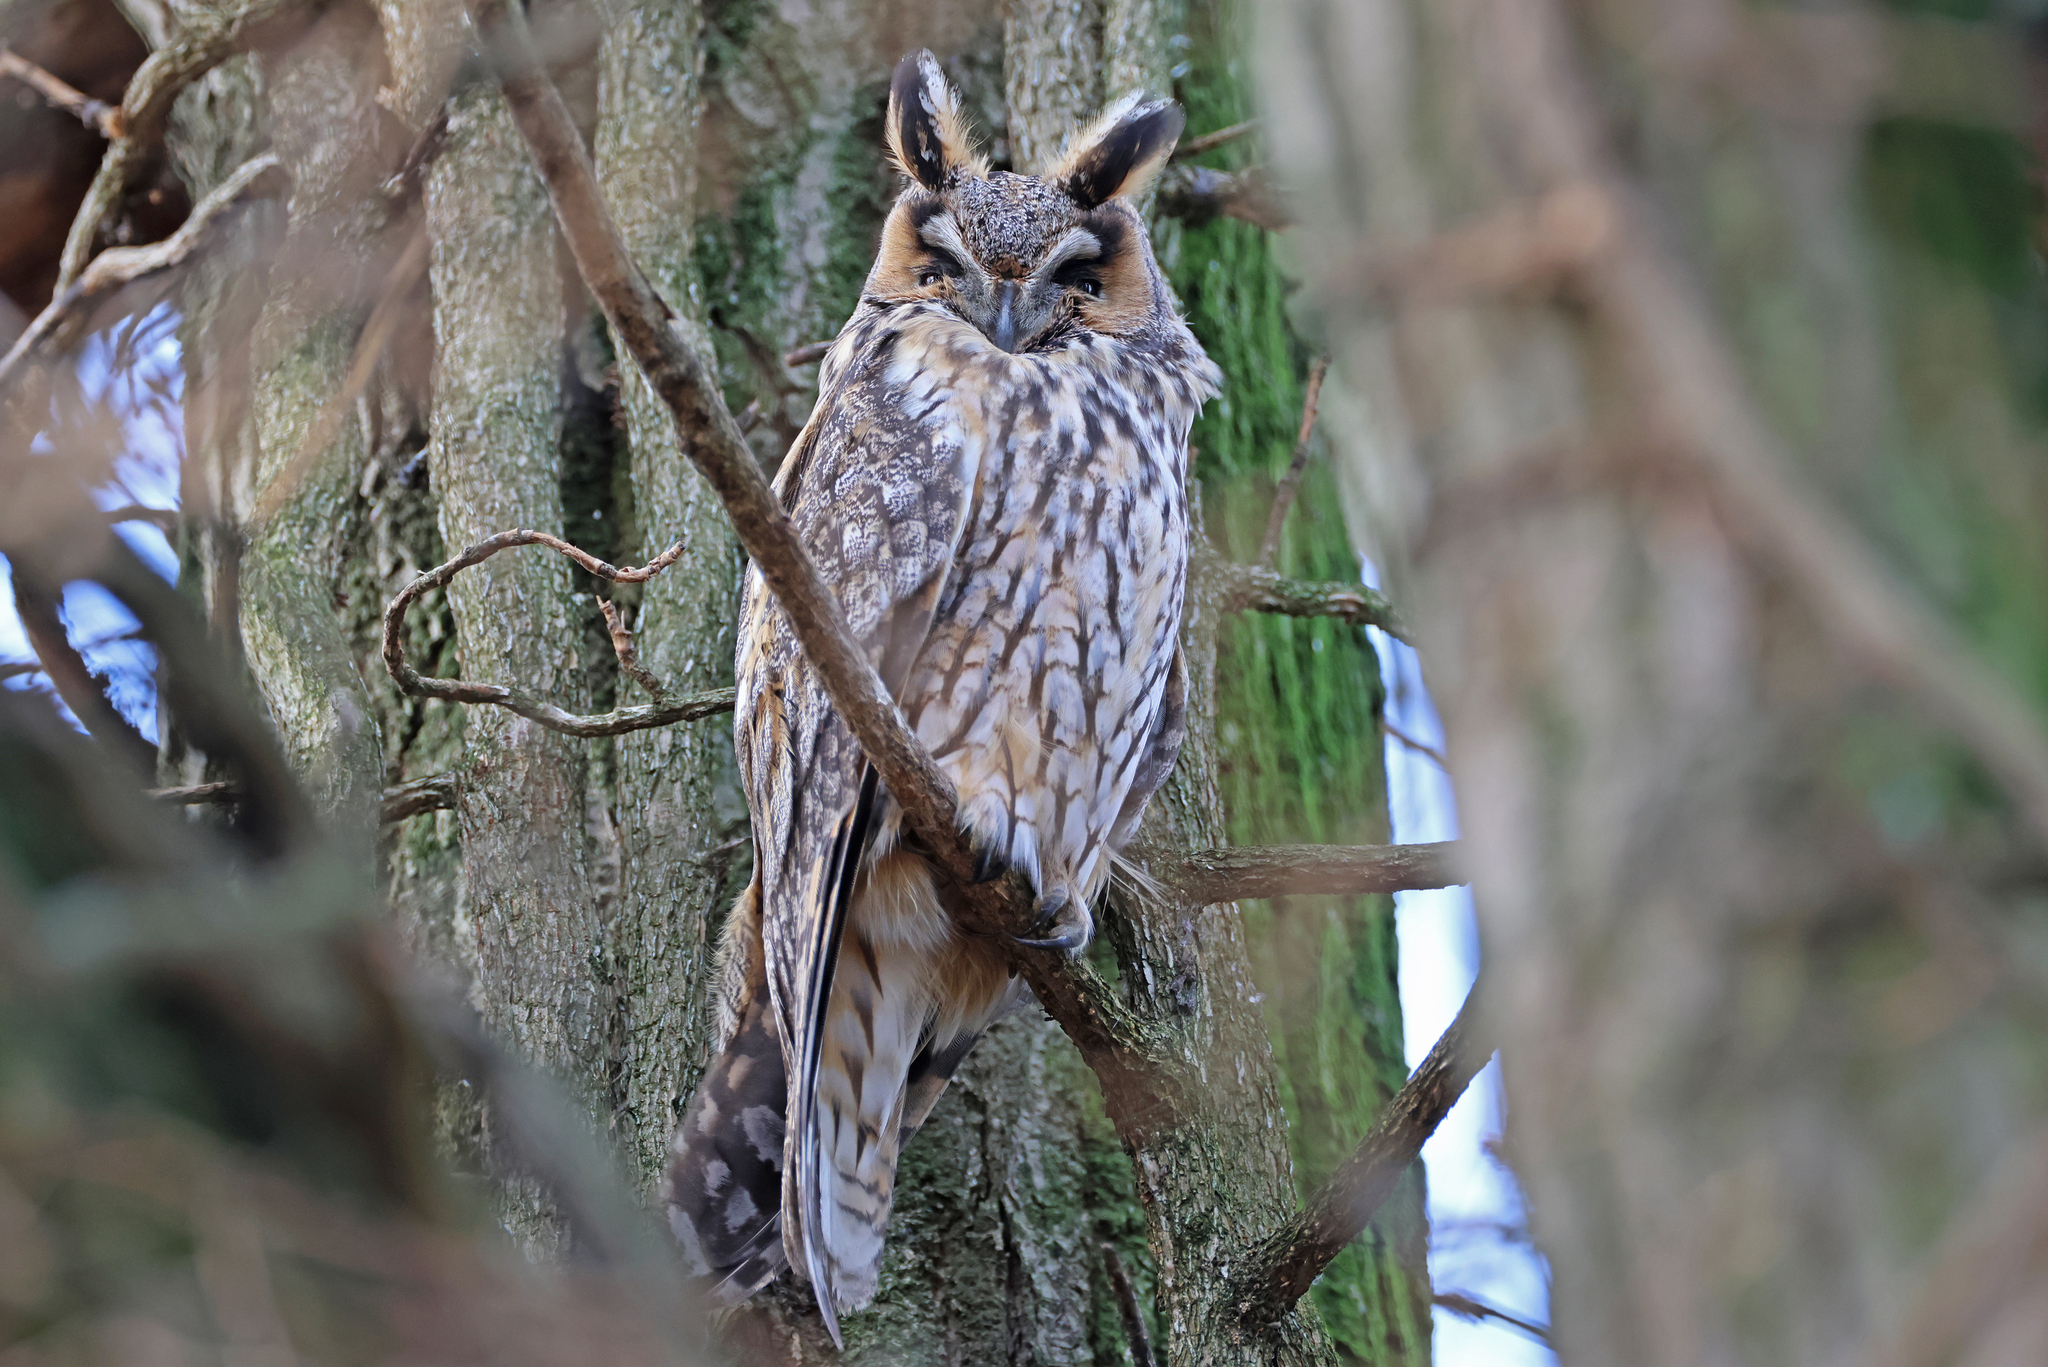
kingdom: Animalia
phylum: Chordata
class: Aves
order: Strigiformes
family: Strigidae
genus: Asio
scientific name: Asio otus
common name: Long-eared owl
